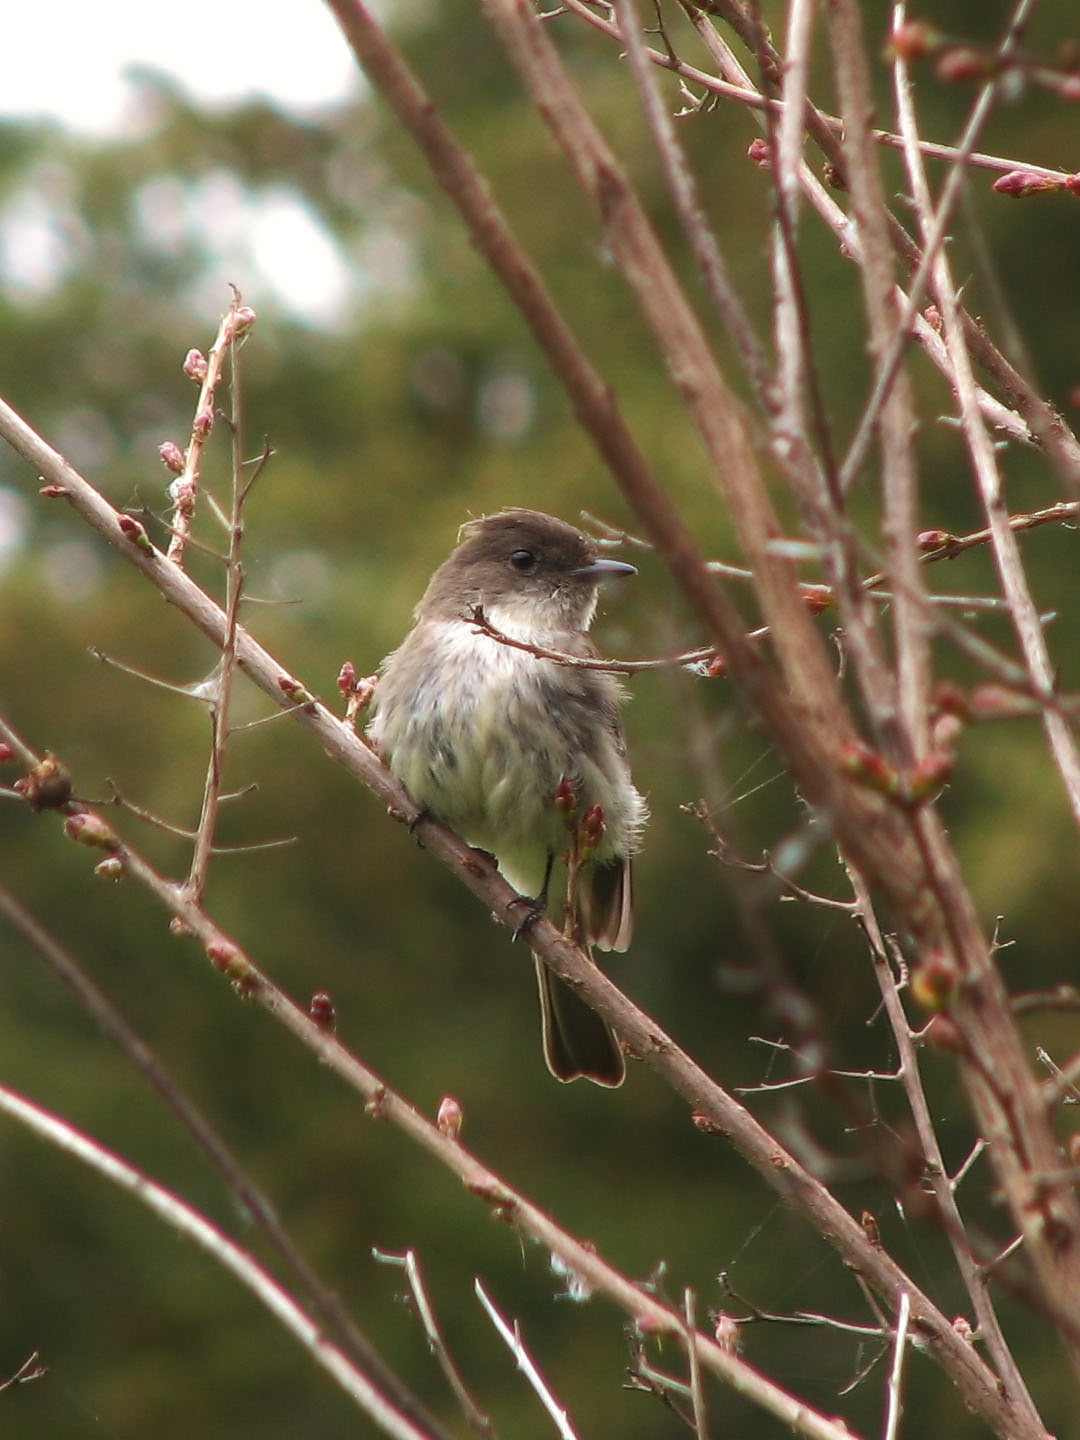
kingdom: Animalia
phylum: Chordata
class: Aves
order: Passeriformes
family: Tyrannidae
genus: Sayornis
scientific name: Sayornis phoebe
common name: Eastern phoebe
